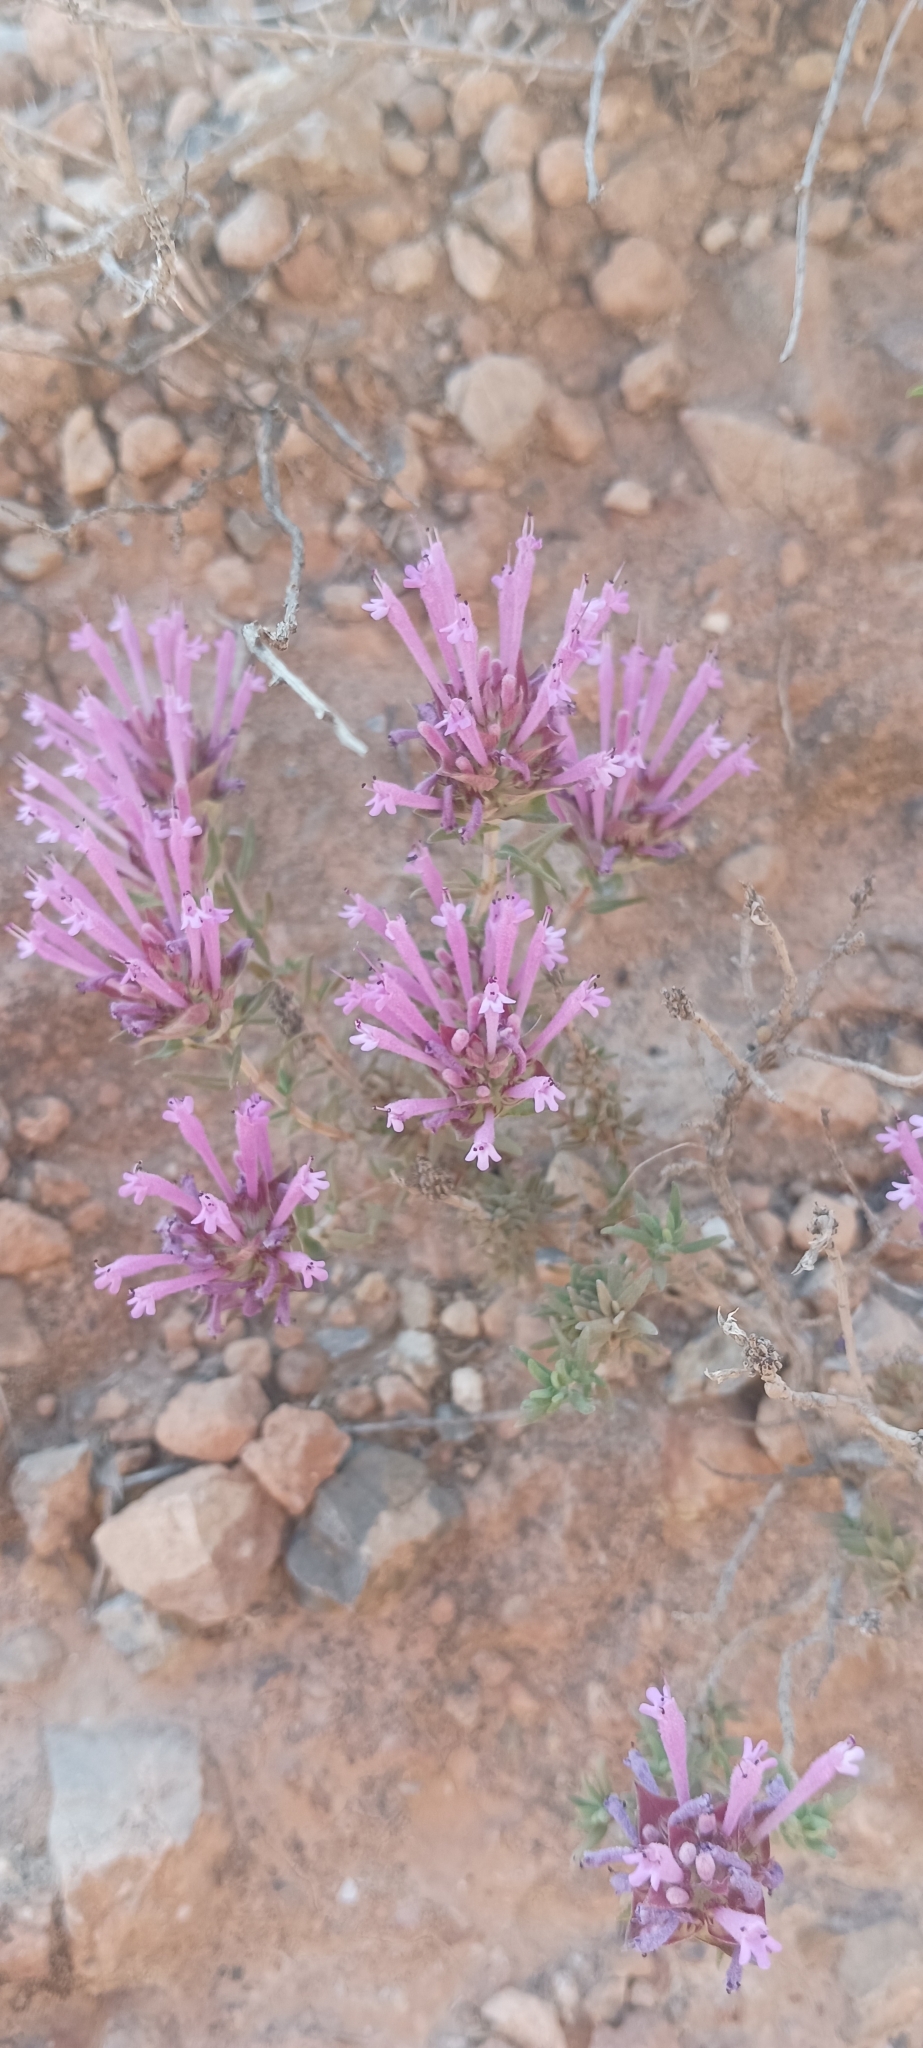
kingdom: Plantae
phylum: Tracheophyta
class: Magnoliopsida
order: Lamiales
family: Lamiaceae
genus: Thymus
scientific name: Thymus longiflorus
